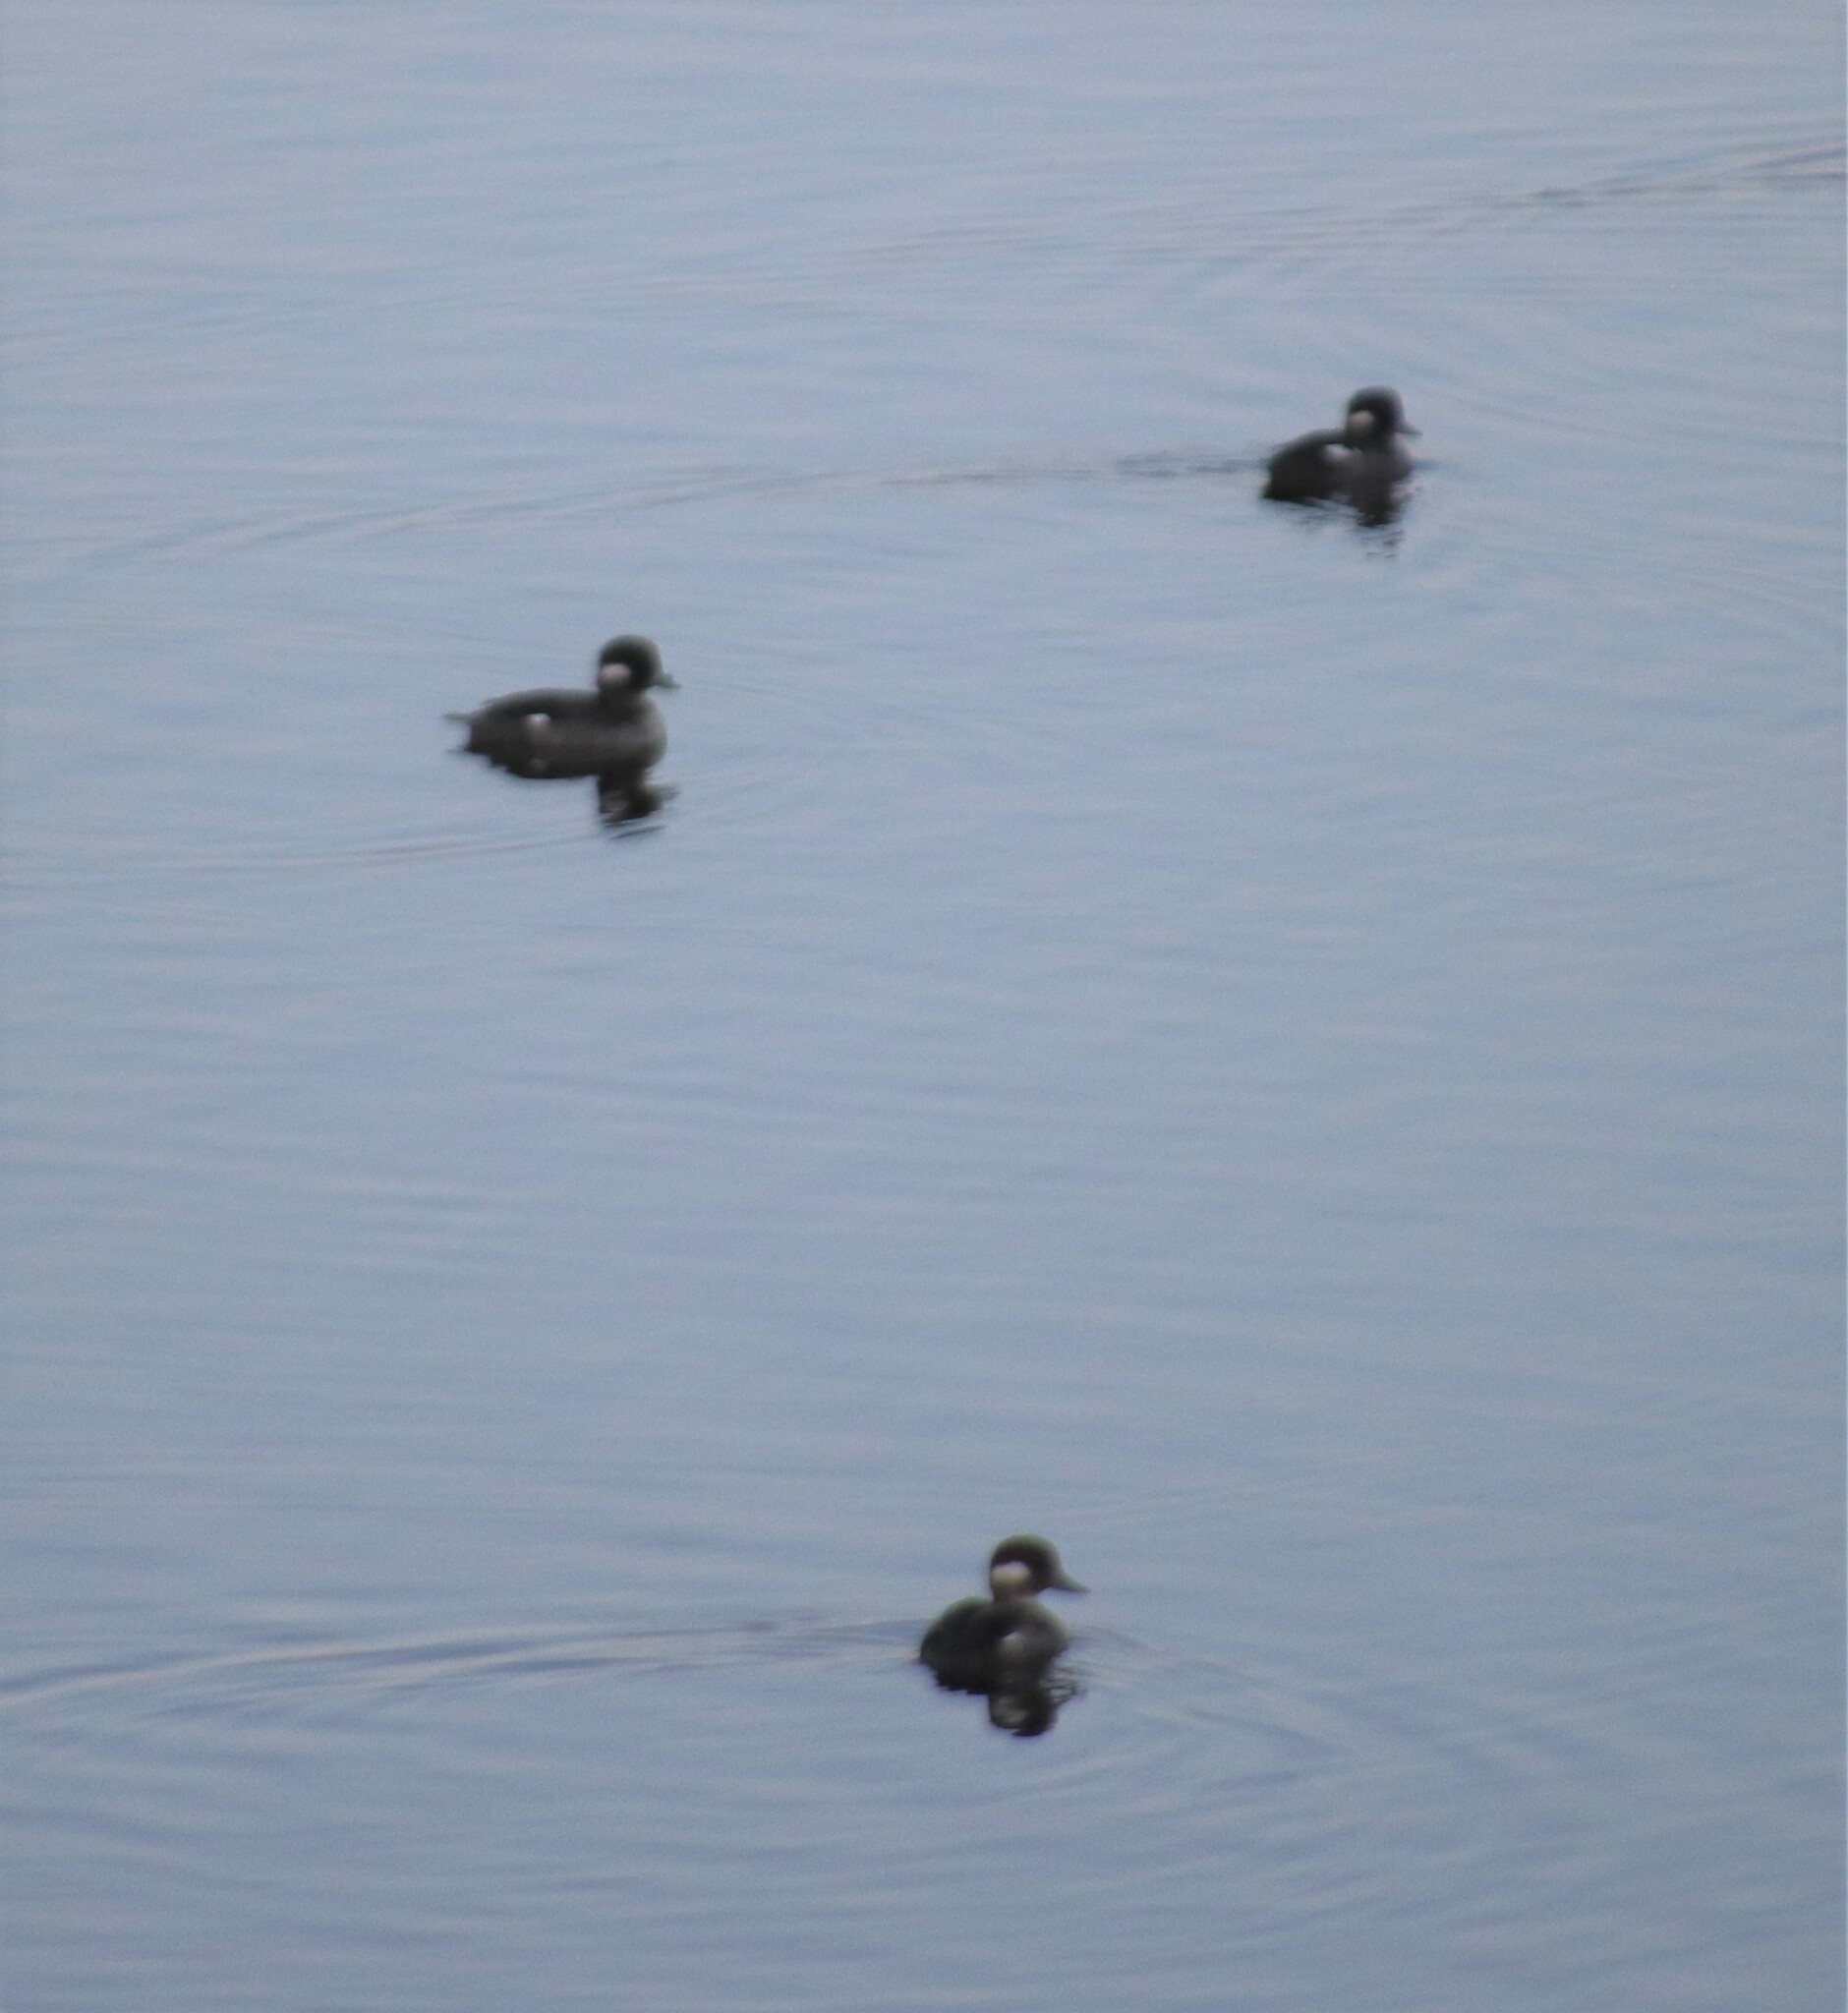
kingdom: Animalia
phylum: Chordata
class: Aves
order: Anseriformes
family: Anatidae
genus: Bucephala
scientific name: Bucephala albeola
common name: Bufflehead
